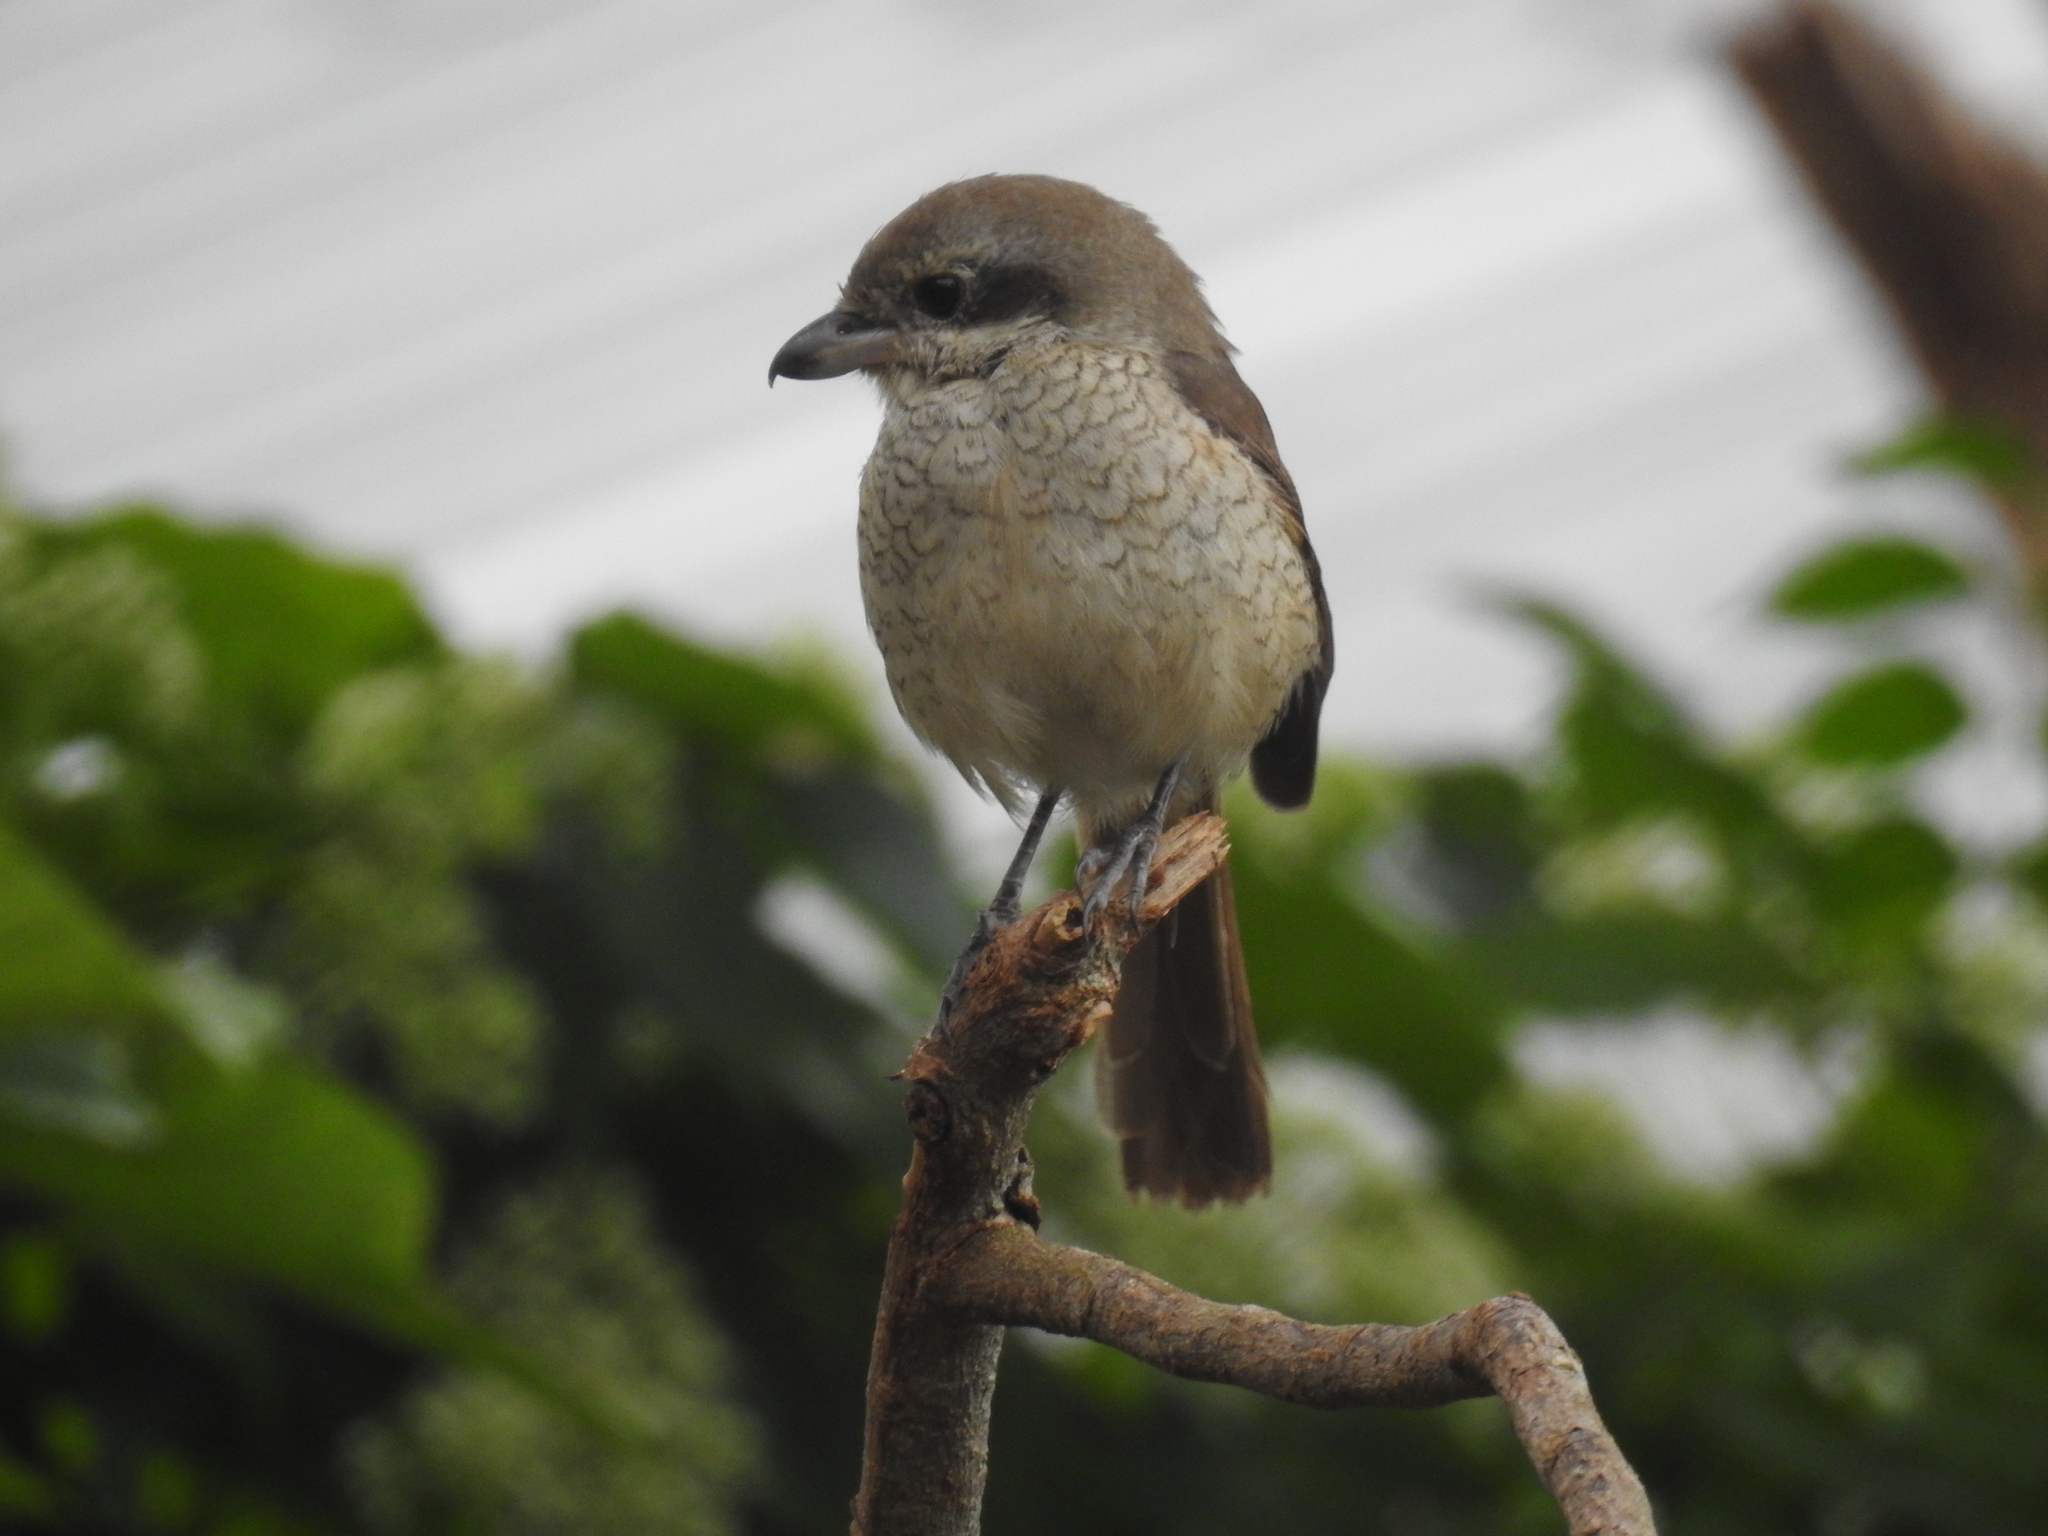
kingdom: Animalia
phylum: Chordata
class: Aves
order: Passeriformes
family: Laniidae
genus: Lanius
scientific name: Lanius cristatus
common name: Brown shrike
